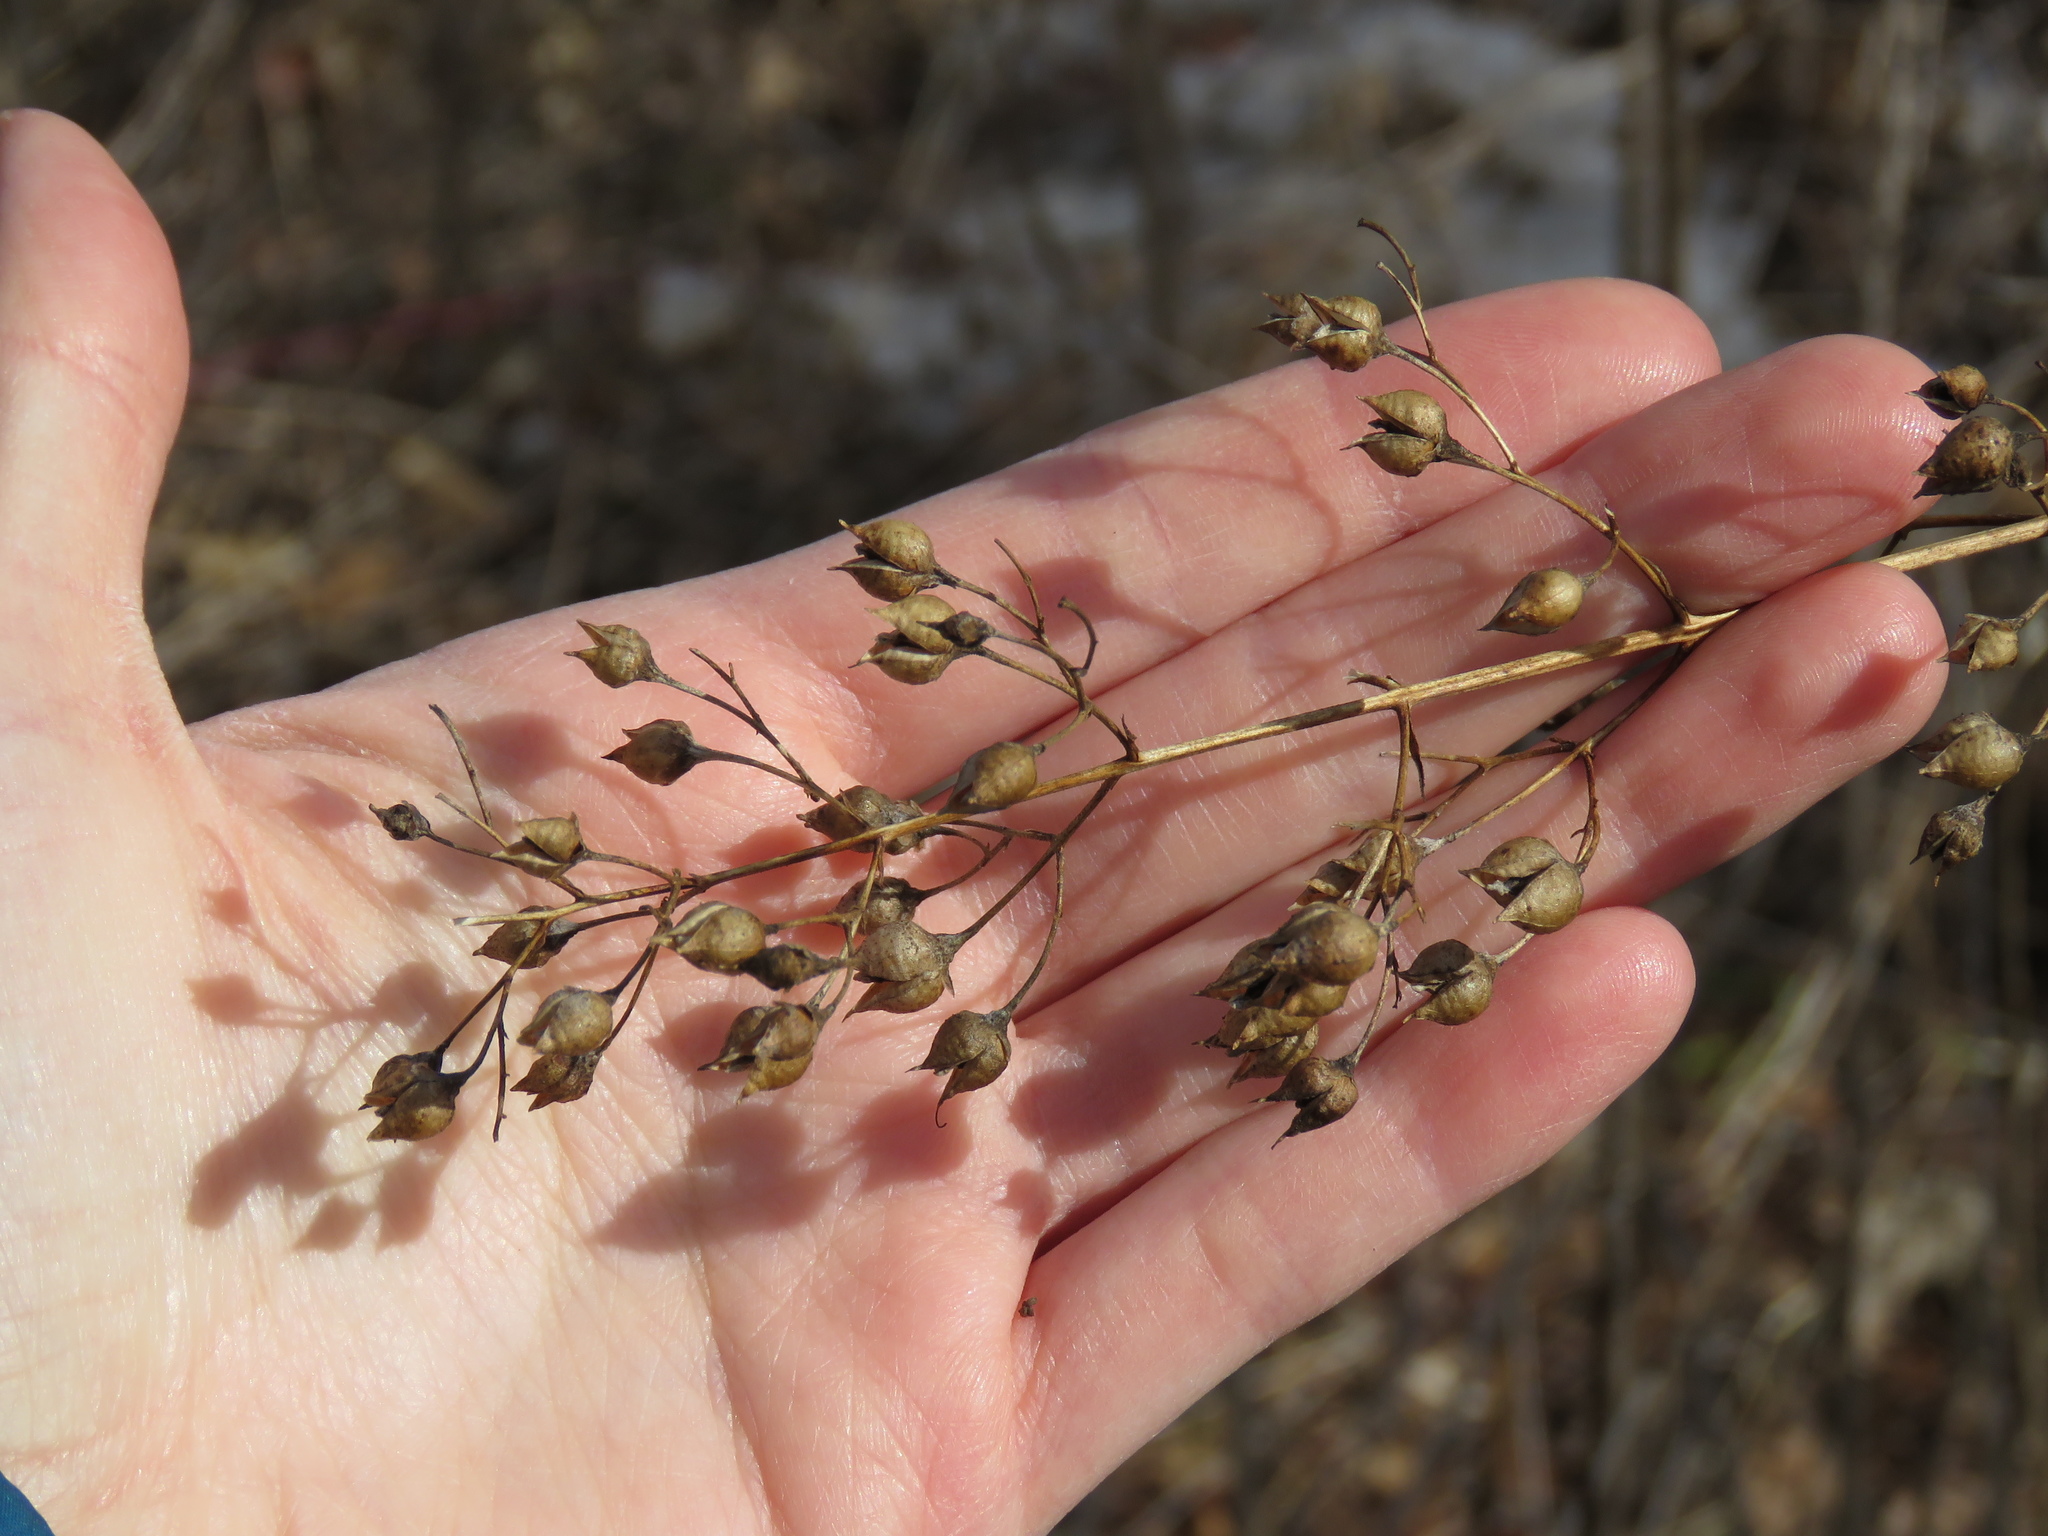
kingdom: Plantae
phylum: Tracheophyta
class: Magnoliopsida
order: Lamiales
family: Scrophulariaceae
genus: Scrophularia
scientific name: Scrophularia marilandica
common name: Eastern figwort
